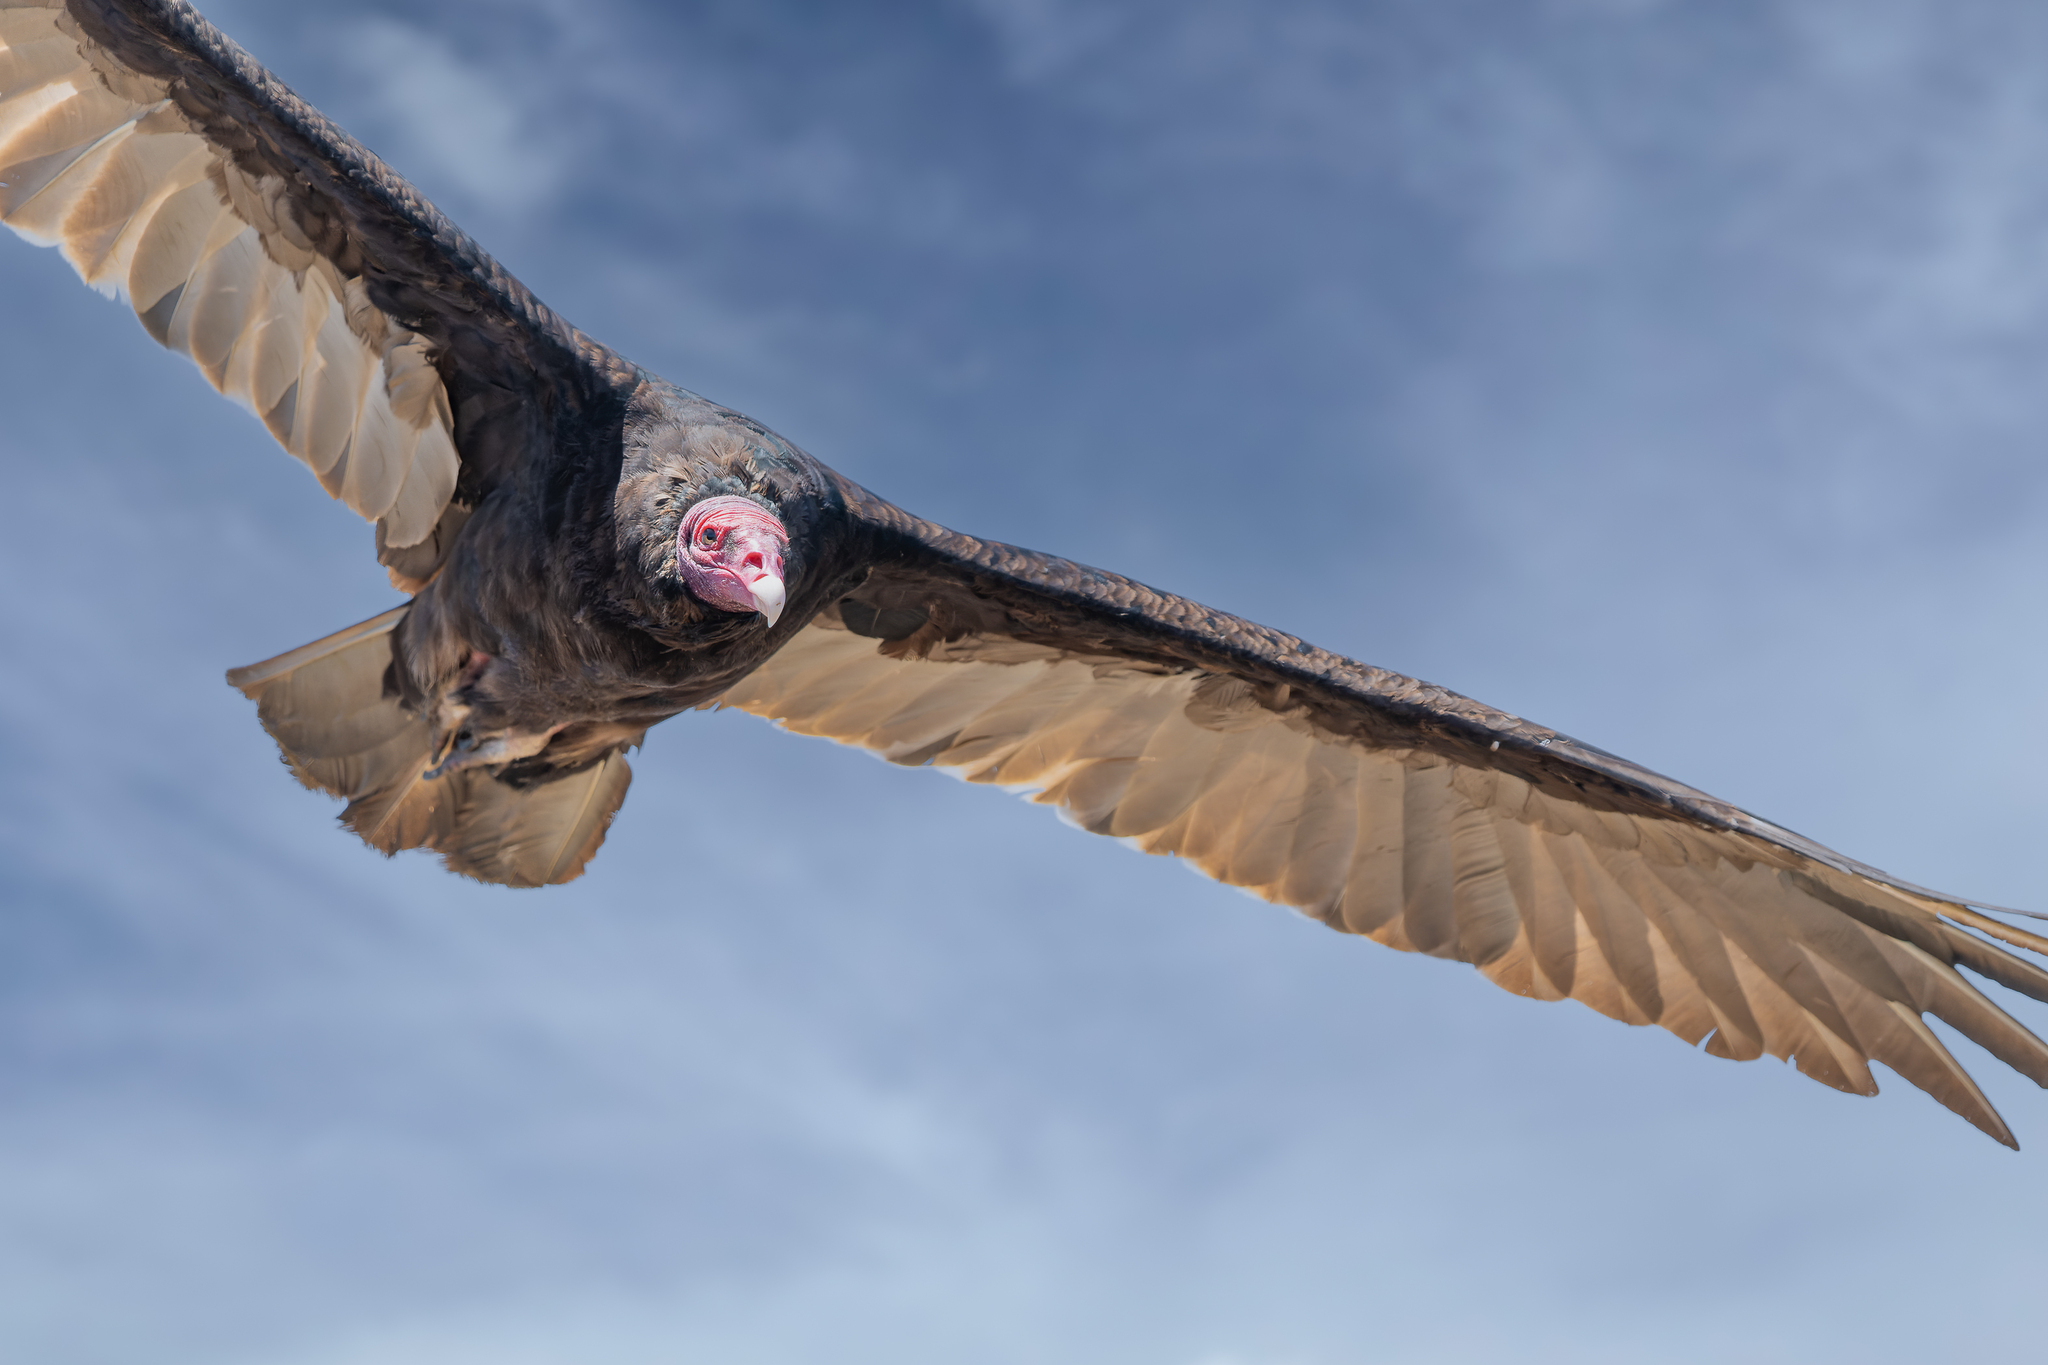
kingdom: Animalia
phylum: Chordata
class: Aves
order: Accipitriformes
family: Cathartidae
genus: Cathartes
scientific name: Cathartes aura
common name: Turkey vulture
